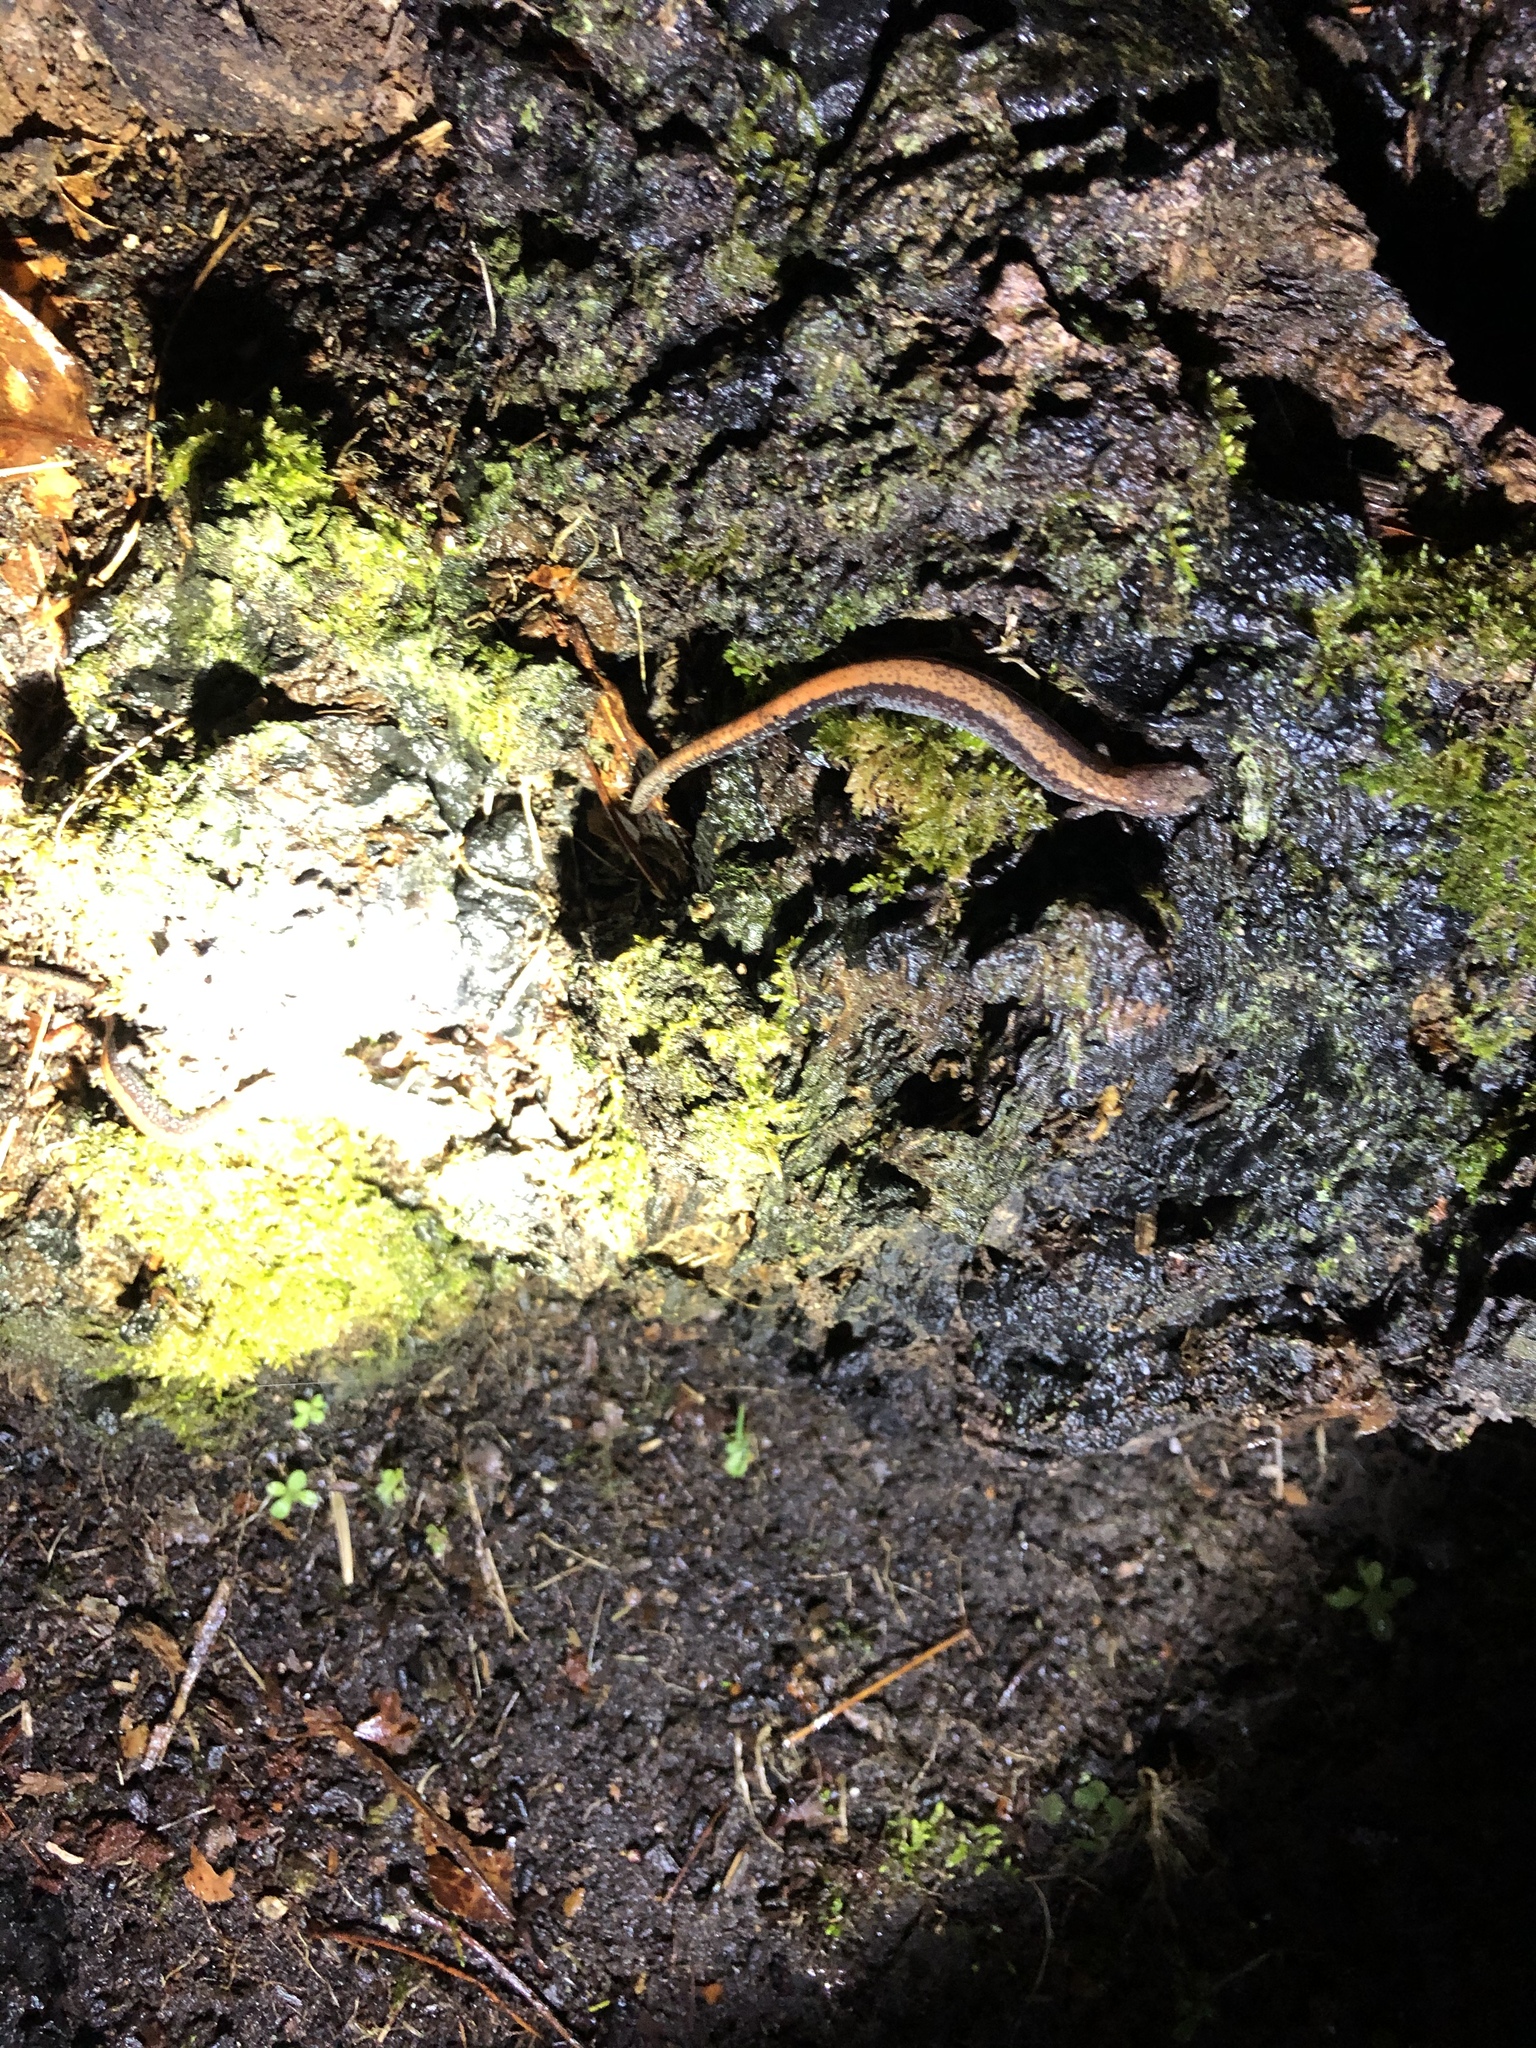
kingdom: Animalia
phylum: Chordata
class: Amphibia
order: Caudata
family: Plethodontidae
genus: Plethodon
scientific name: Plethodon cinereus
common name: Redback salamander
